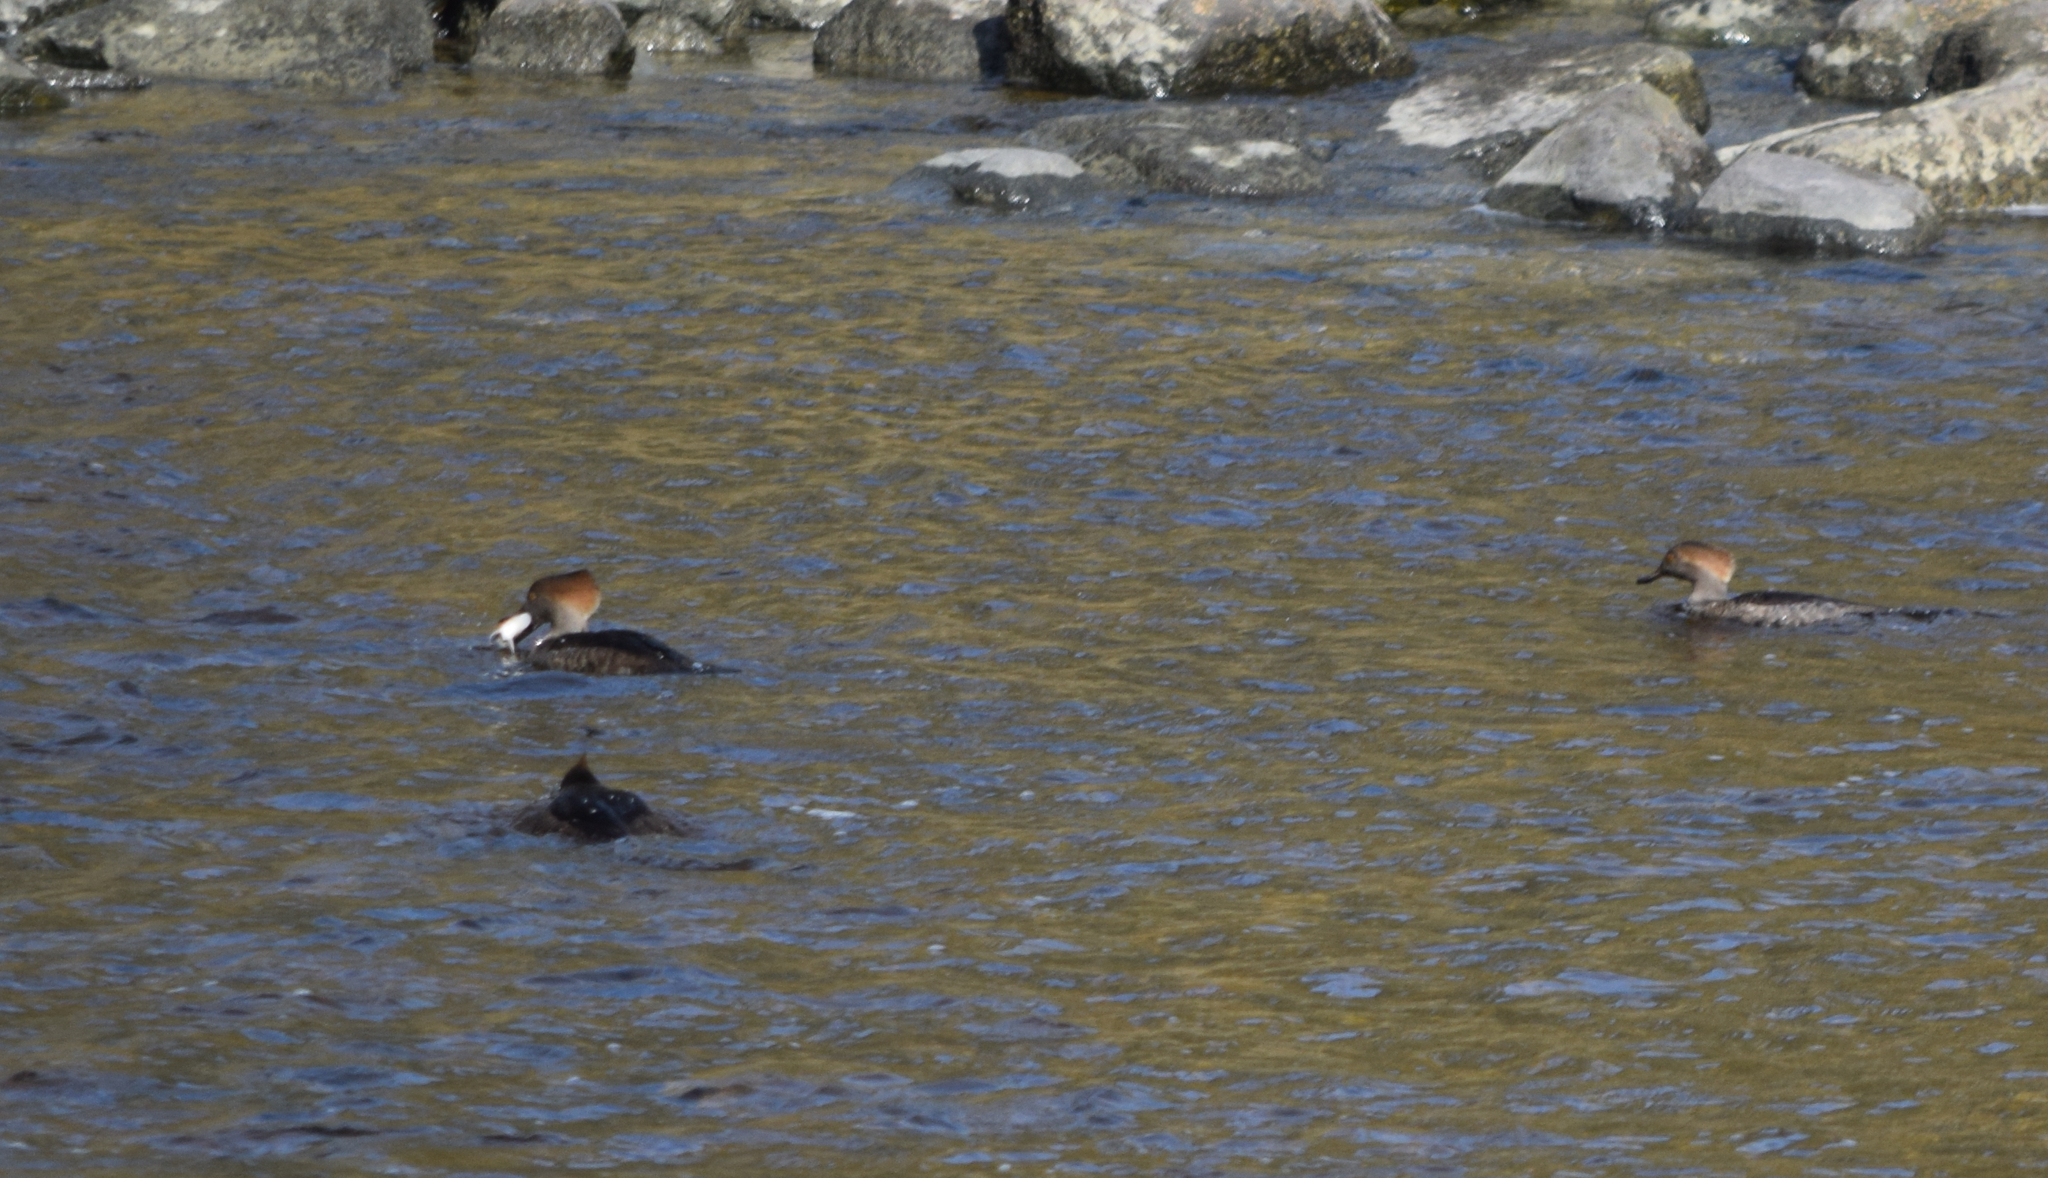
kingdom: Animalia
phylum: Chordata
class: Aves
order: Anseriformes
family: Anatidae
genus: Lophodytes
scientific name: Lophodytes cucullatus
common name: Hooded merganser
